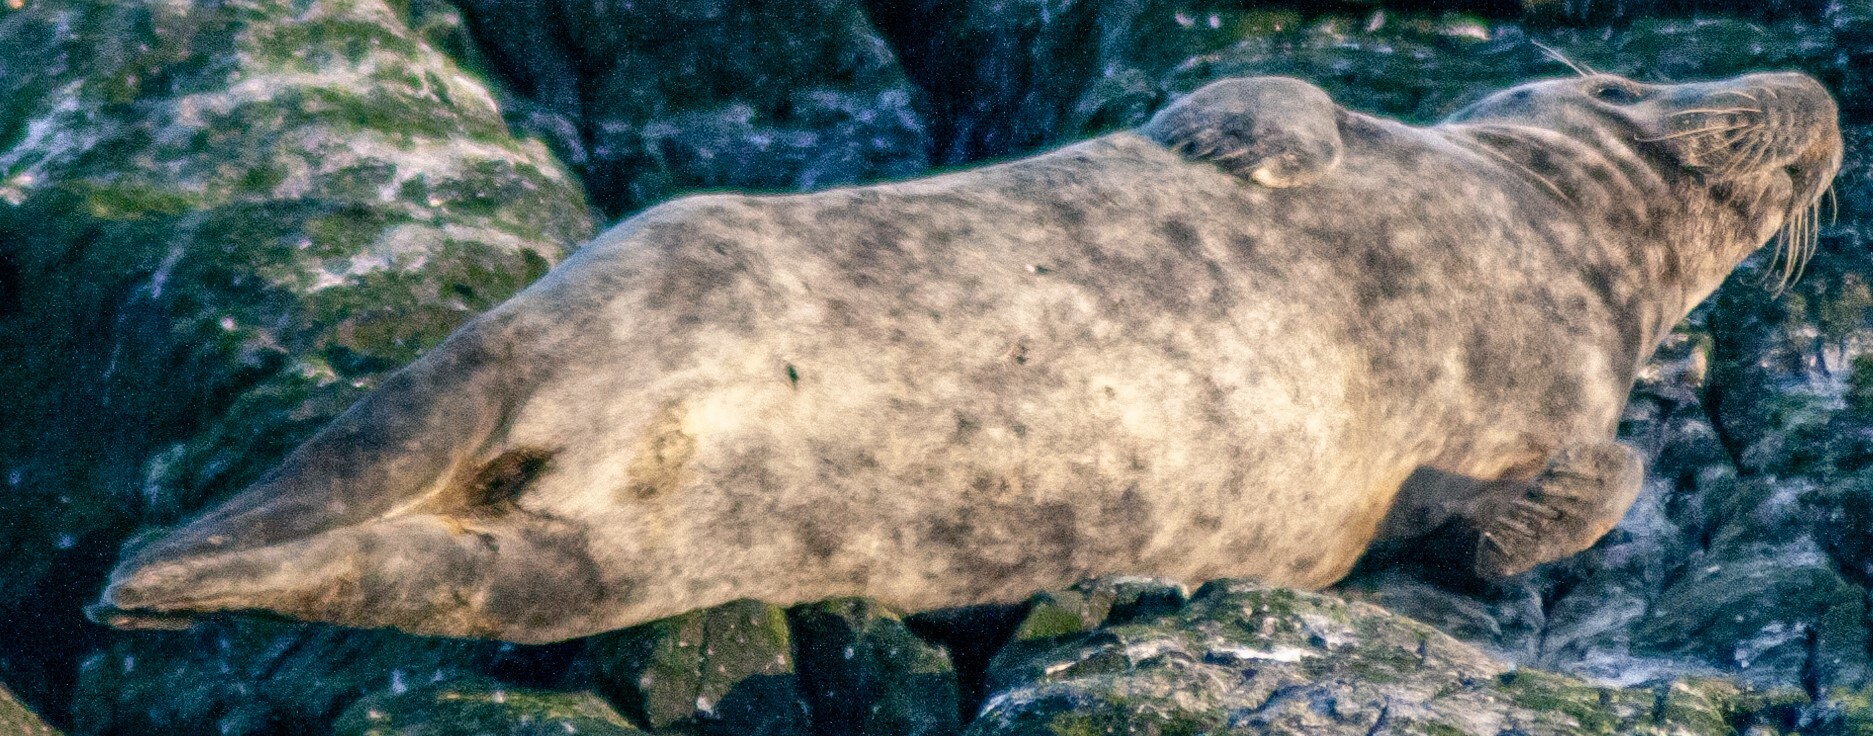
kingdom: Animalia
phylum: Chordata
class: Mammalia
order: Carnivora
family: Phocidae
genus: Halichoerus
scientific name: Halichoerus grypus
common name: Grey seal
